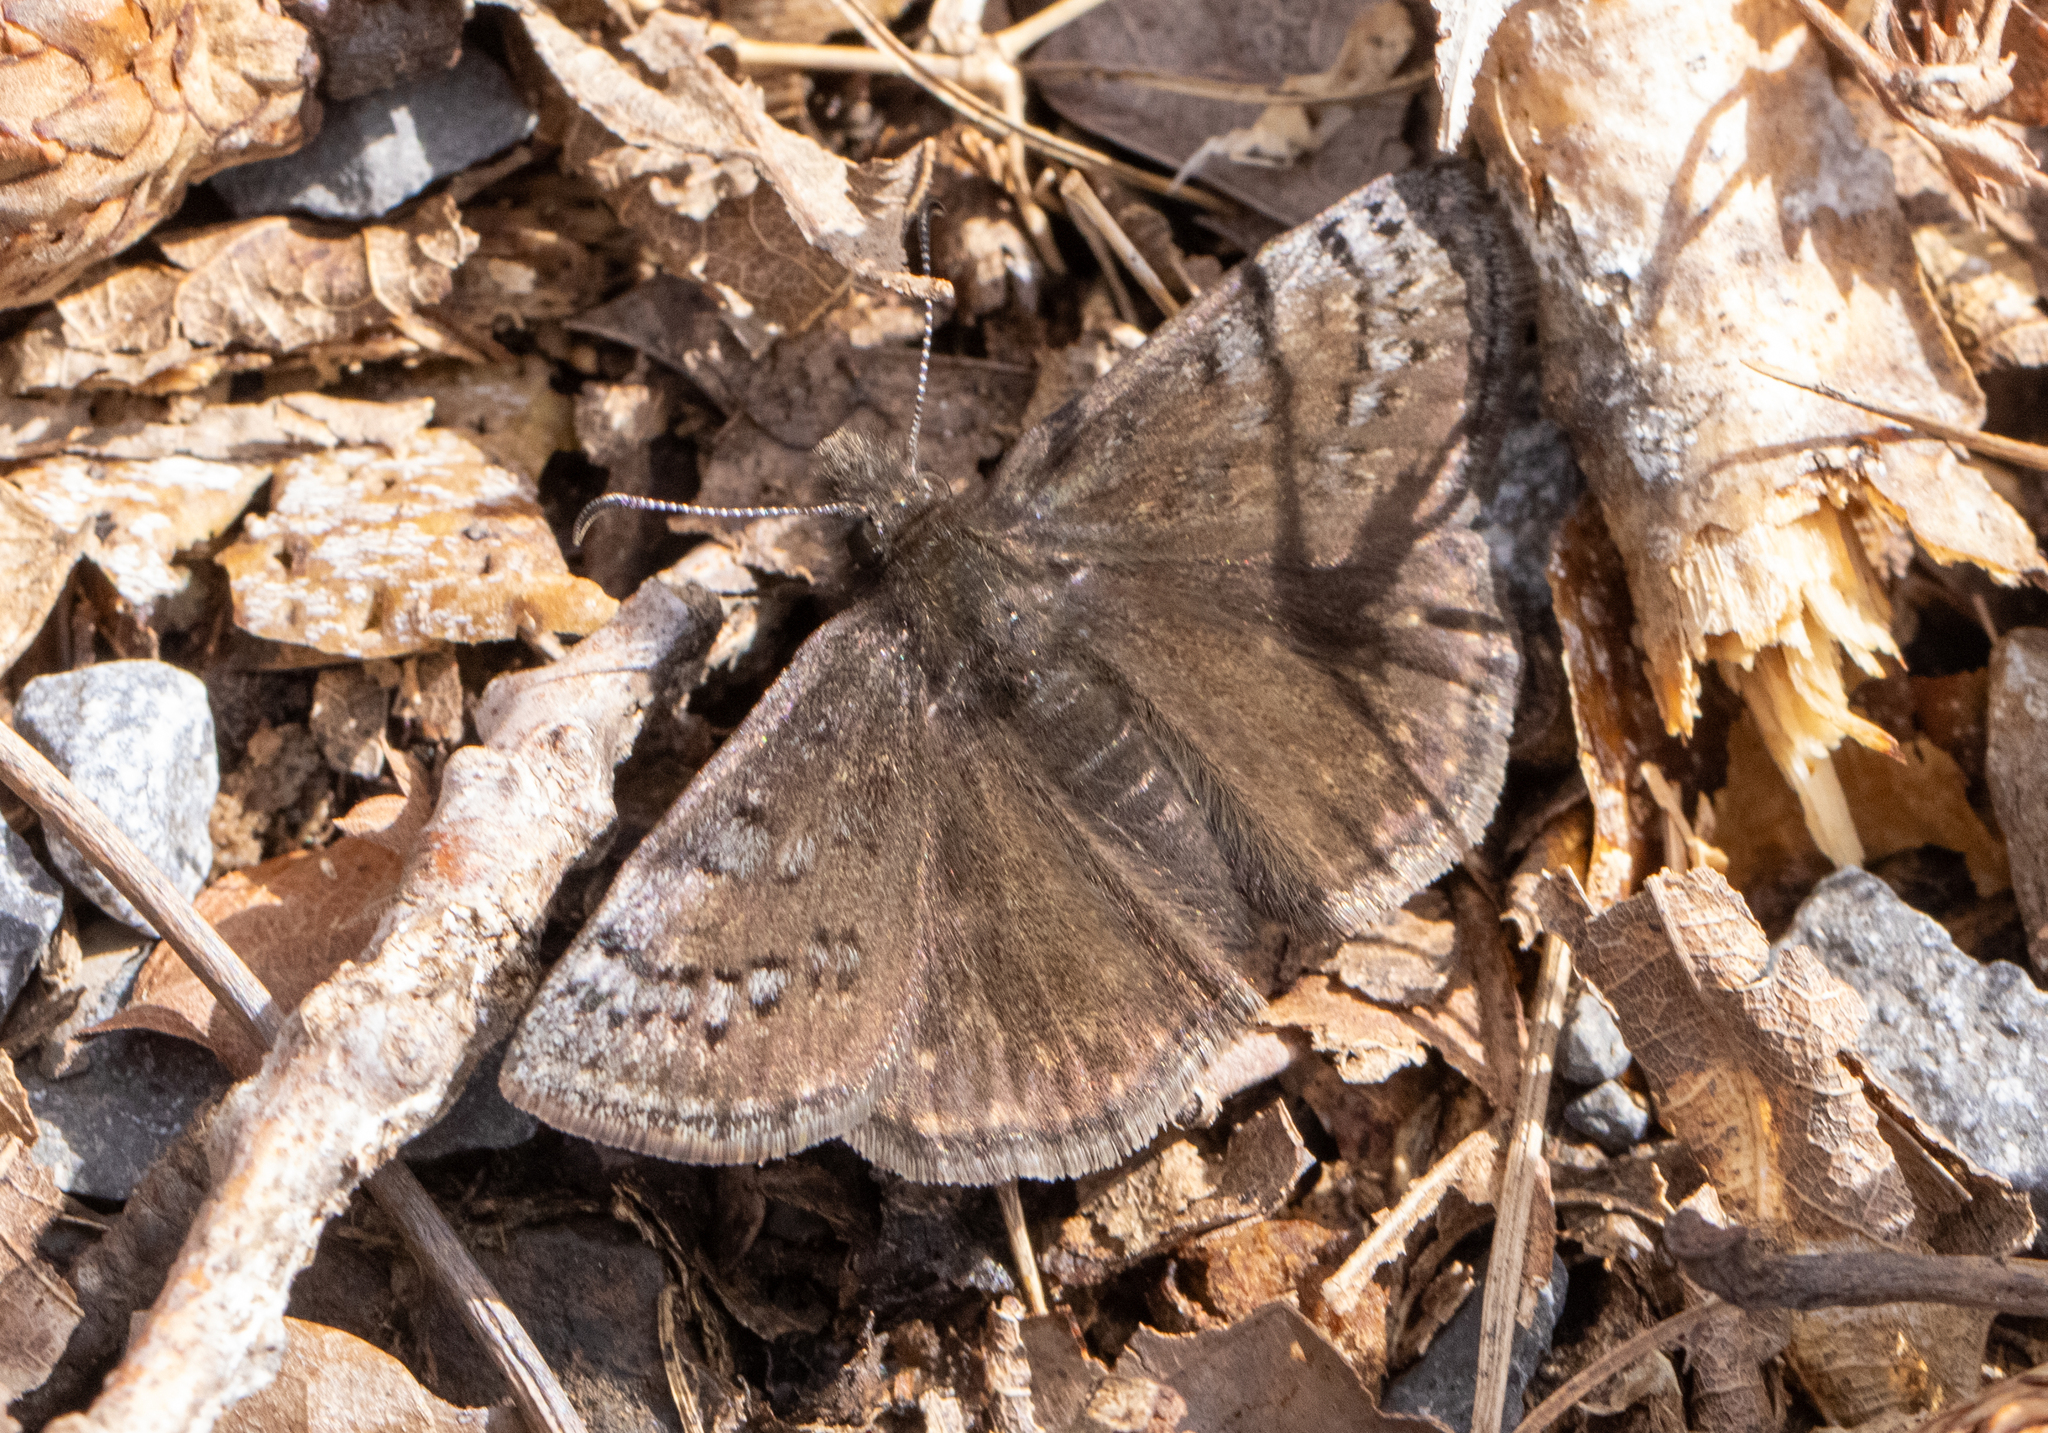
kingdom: Animalia
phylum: Arthropoda
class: Insecta
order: Lepidoptera
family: Hesperiidae
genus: Erynnis
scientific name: Erynnis brizo
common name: Sleepy duskywing
